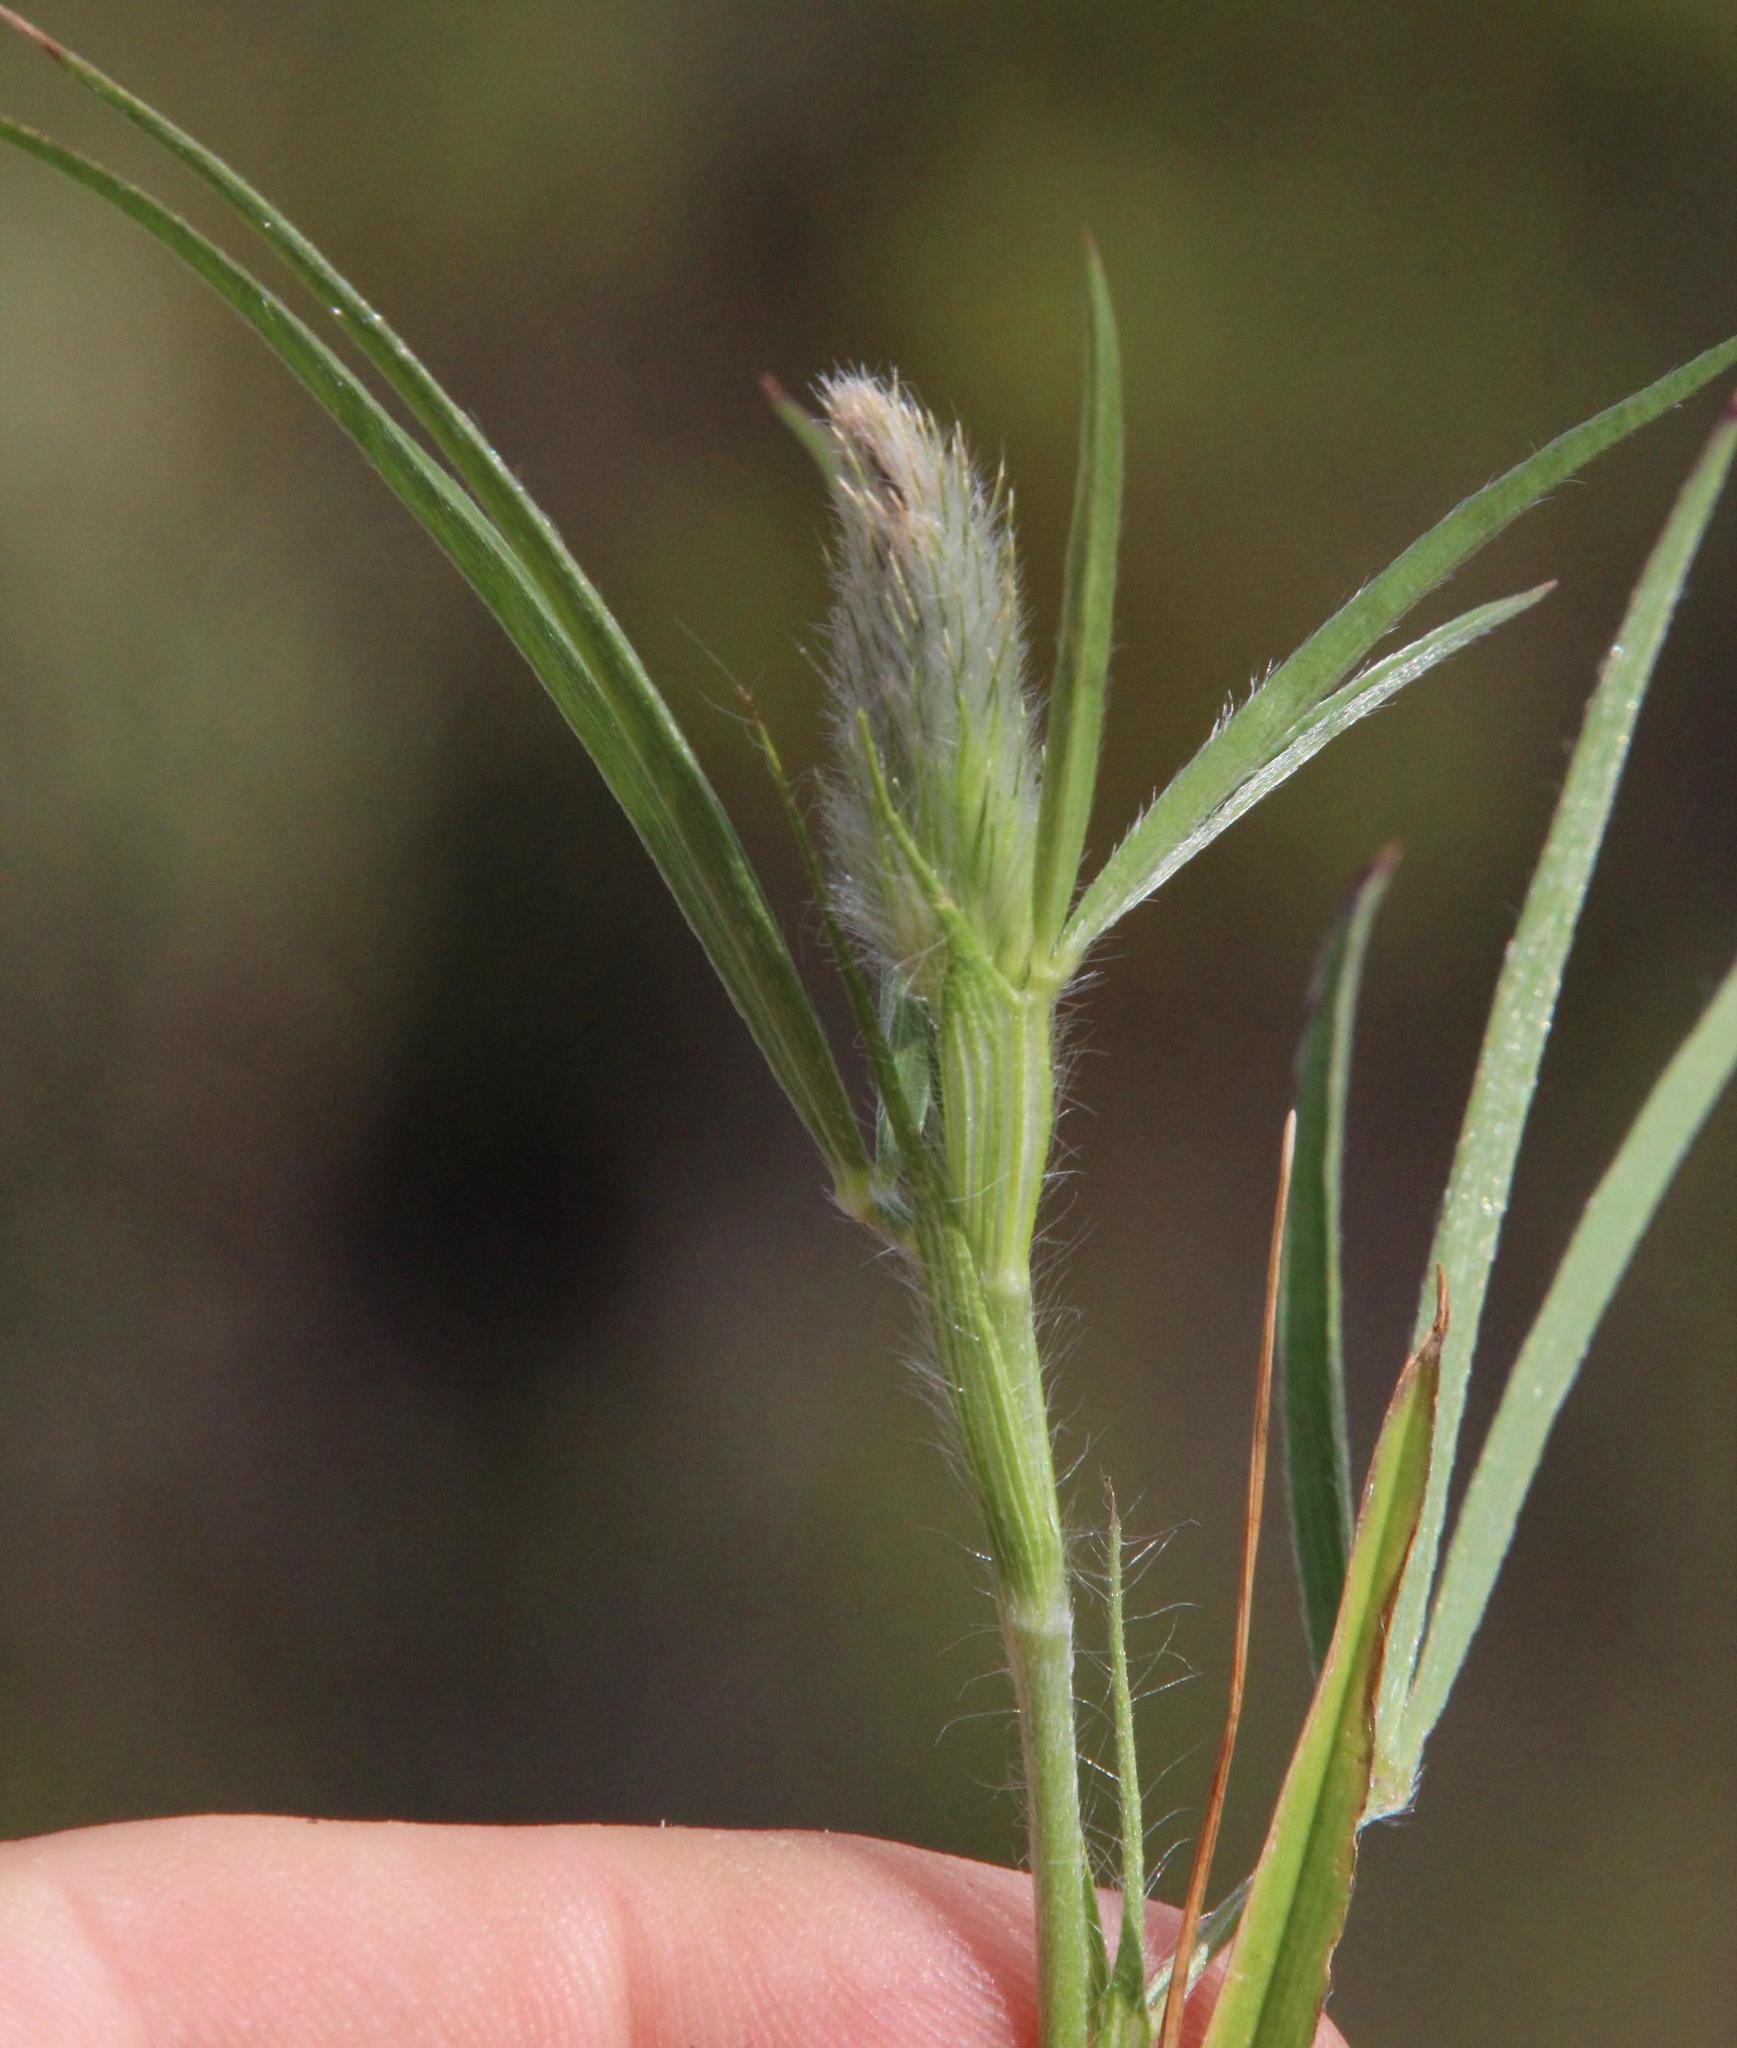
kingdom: Plantae
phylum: Tracheophyta
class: Magnoliopsida
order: Fabales
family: Fabaceae
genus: Trifolium
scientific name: Trifolium angustifolium
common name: Narrow clover
